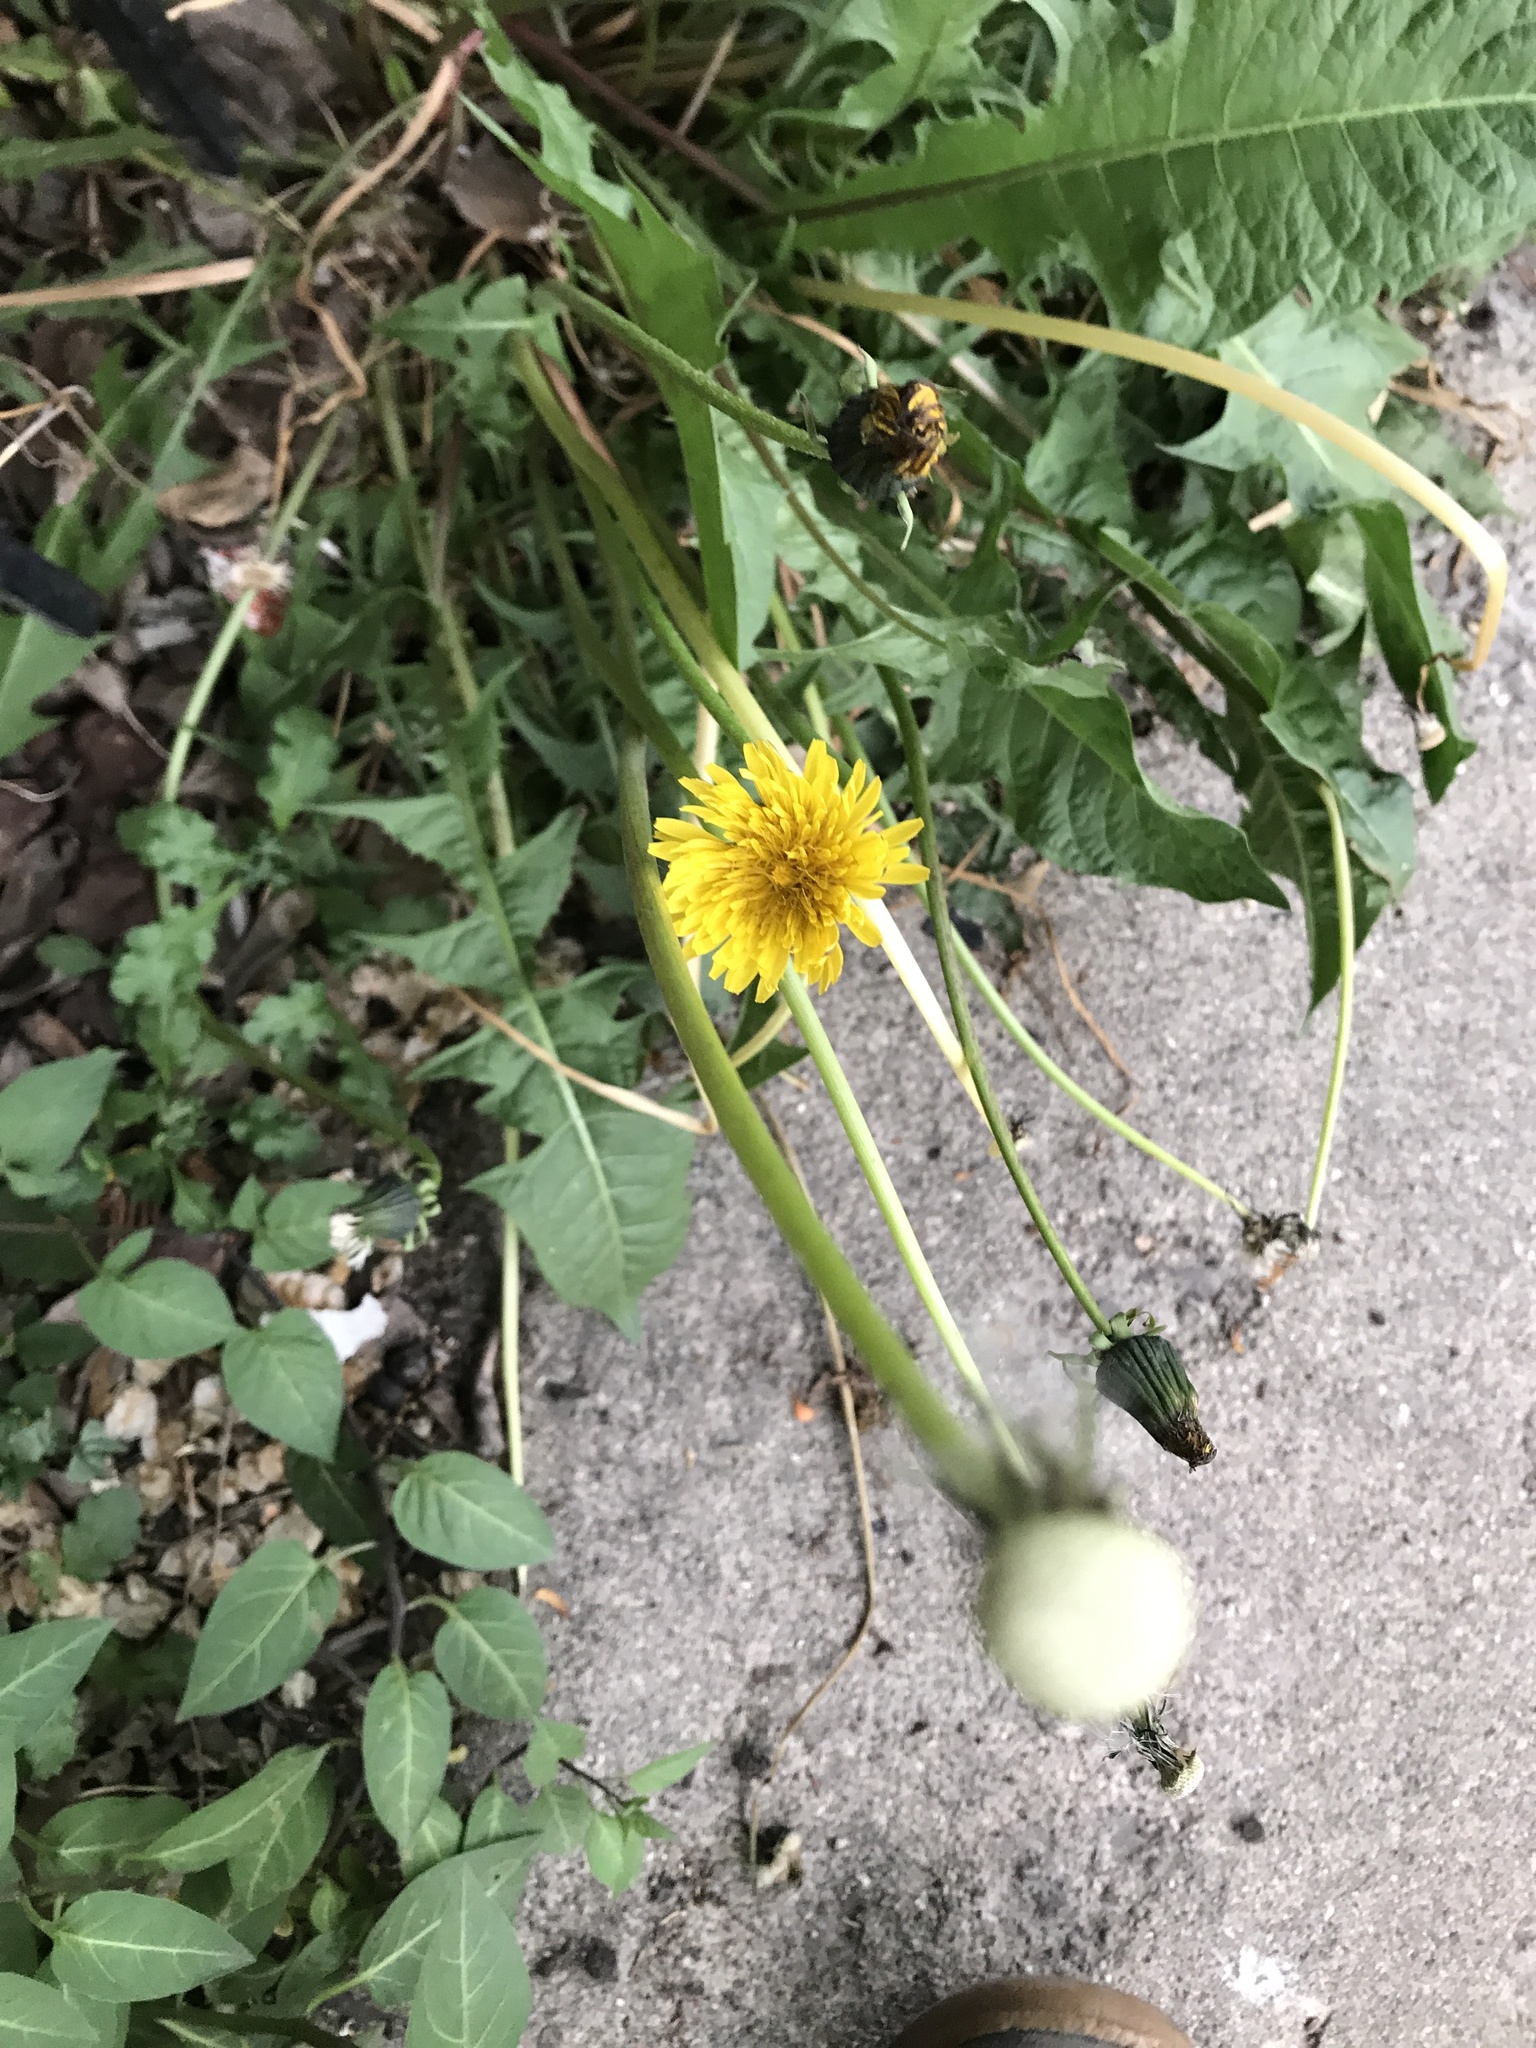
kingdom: Plantae
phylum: Tracheophyta
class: Magnoliopsida
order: Asterales
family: Asteraceae
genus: Taraxacum
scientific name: Taraxacum officinale
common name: Common dandelion
